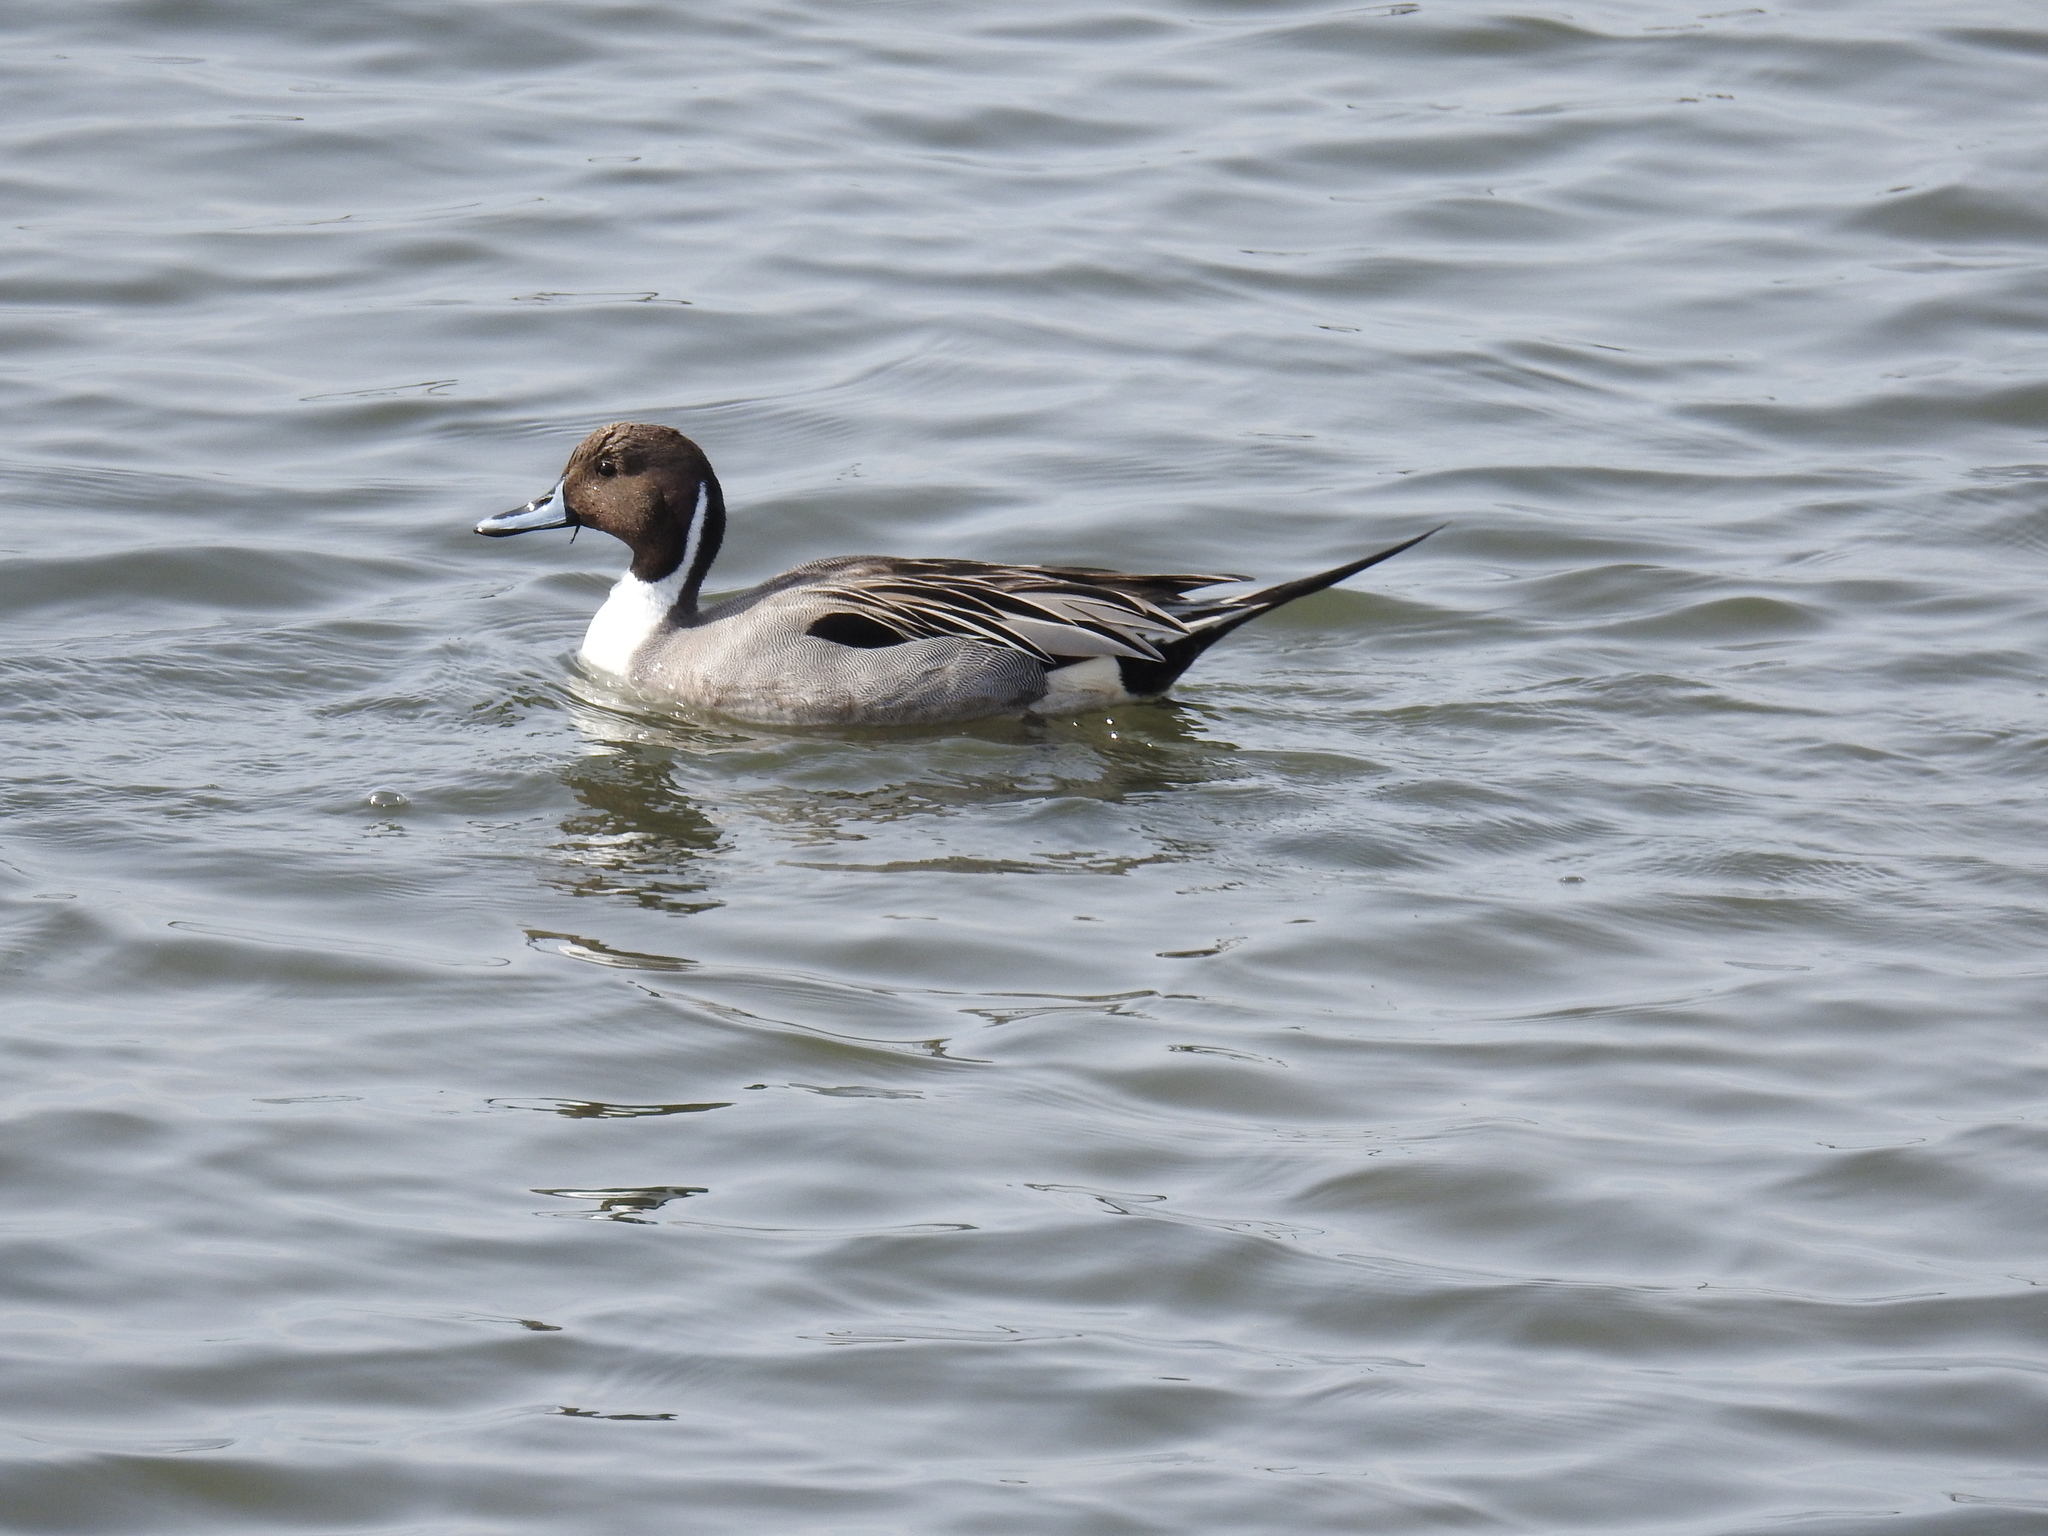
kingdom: Animalia
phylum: Chordata
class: Aves
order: Anseriformes
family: Anatidae
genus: Anas
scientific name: Anas acuta
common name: Northern pintail
